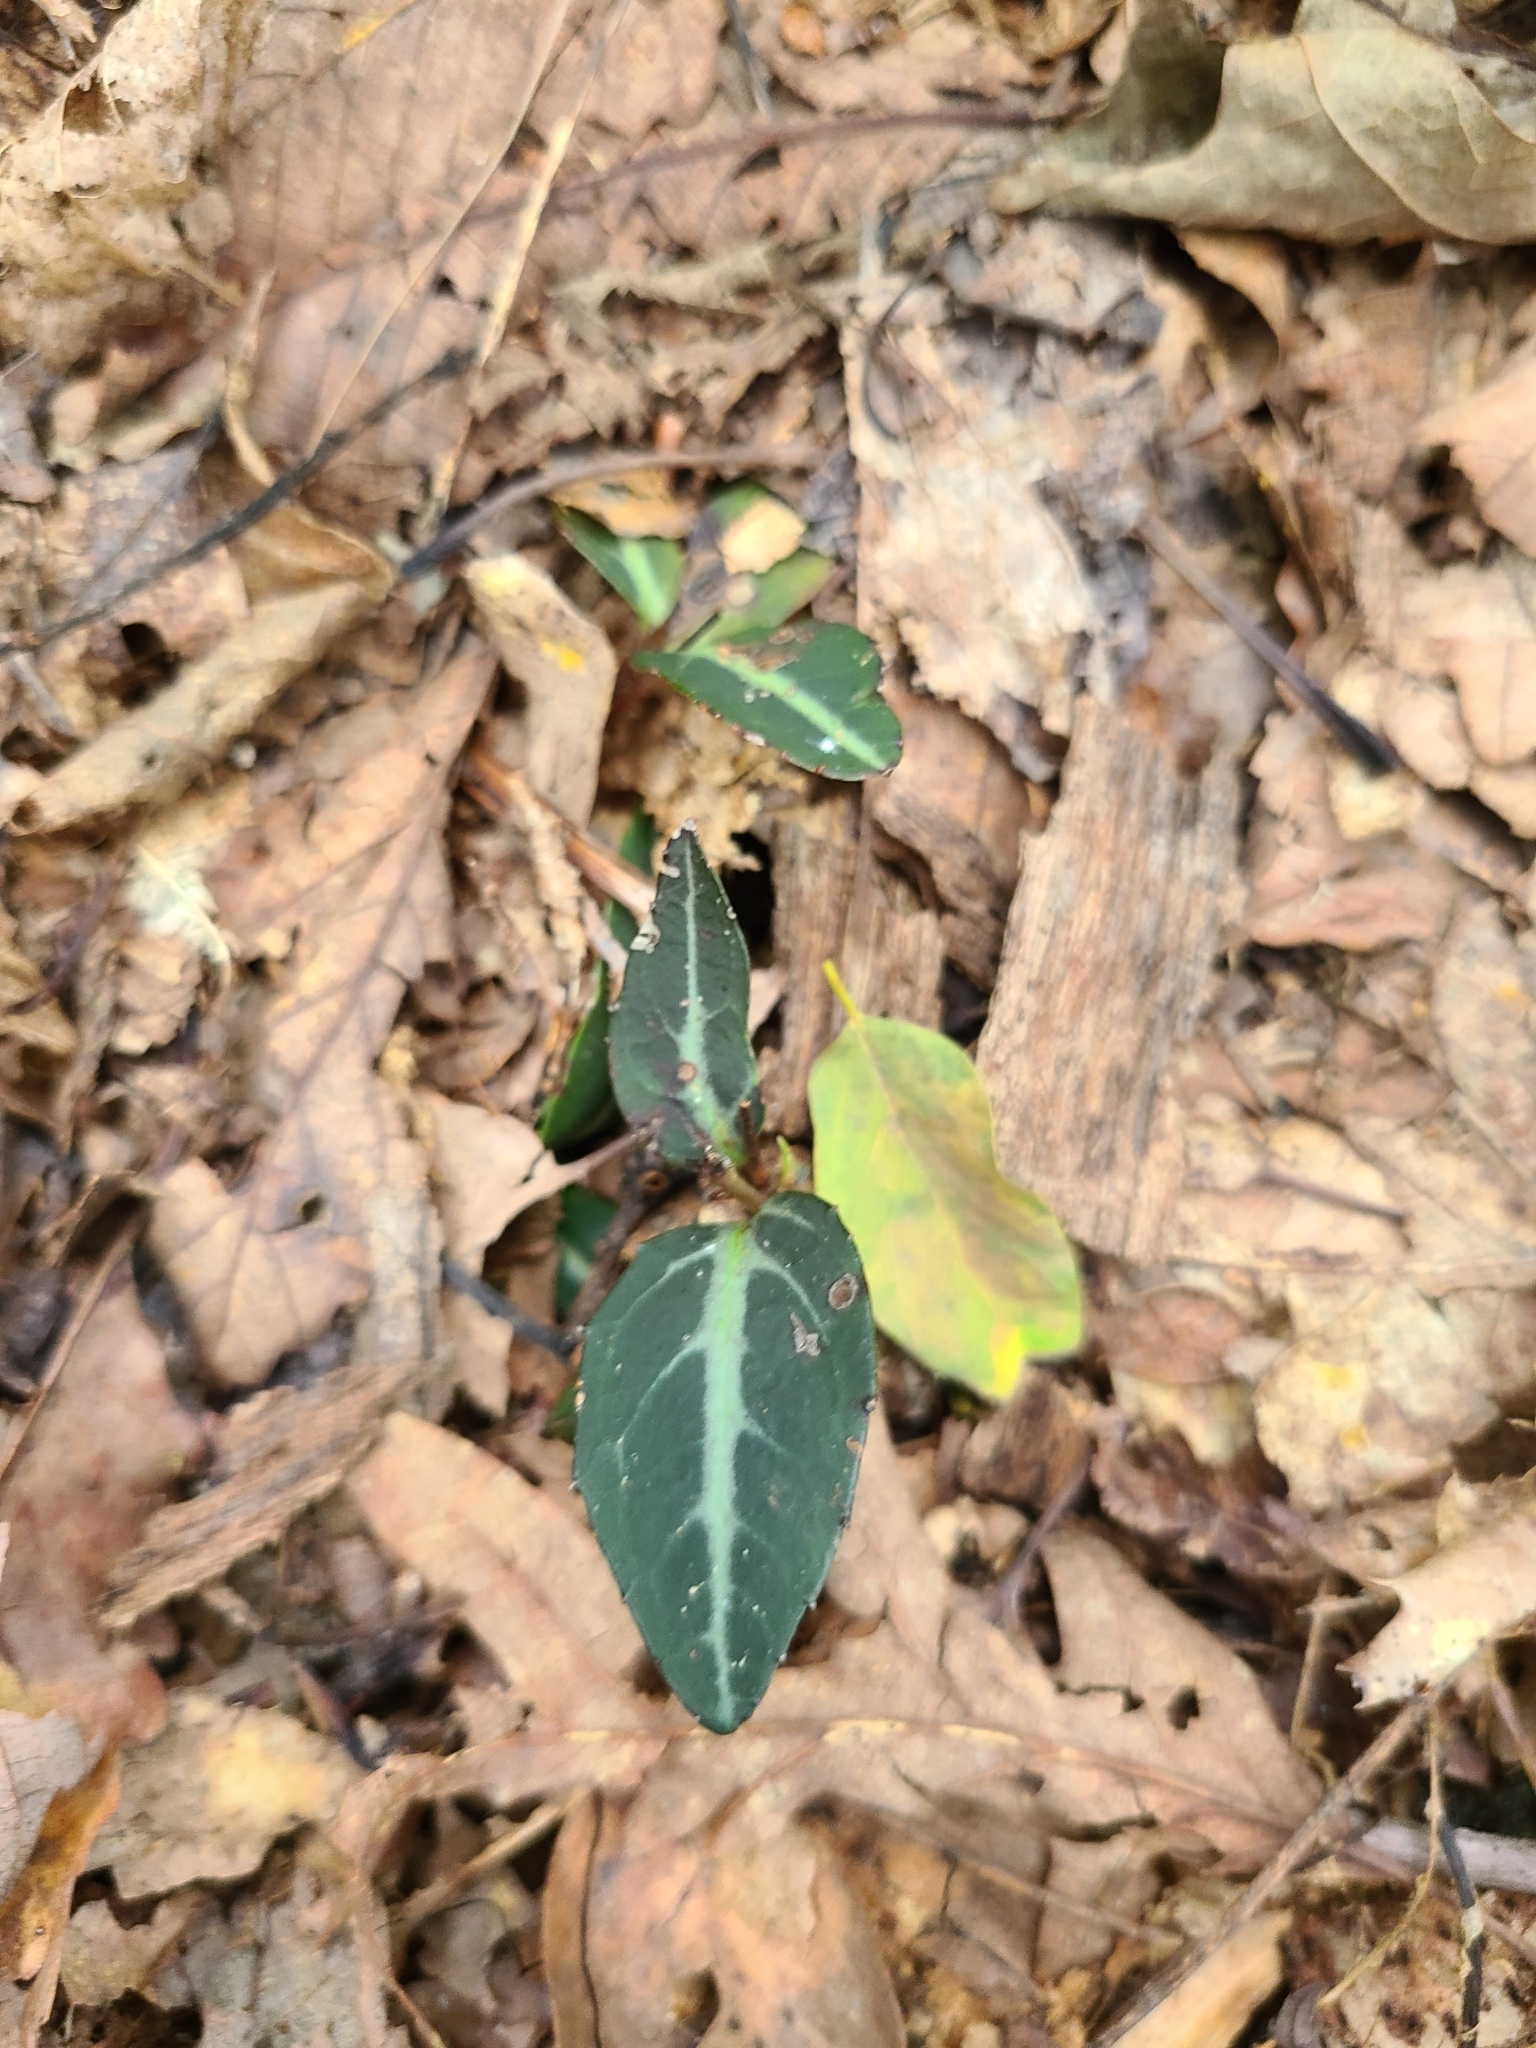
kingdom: Plantae
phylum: Tracheophyta
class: Magnoliopsida
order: Ericales
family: Ericaceae
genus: Chimaphila
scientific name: Chimaphila maculata
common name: Spotted pipsissewa
